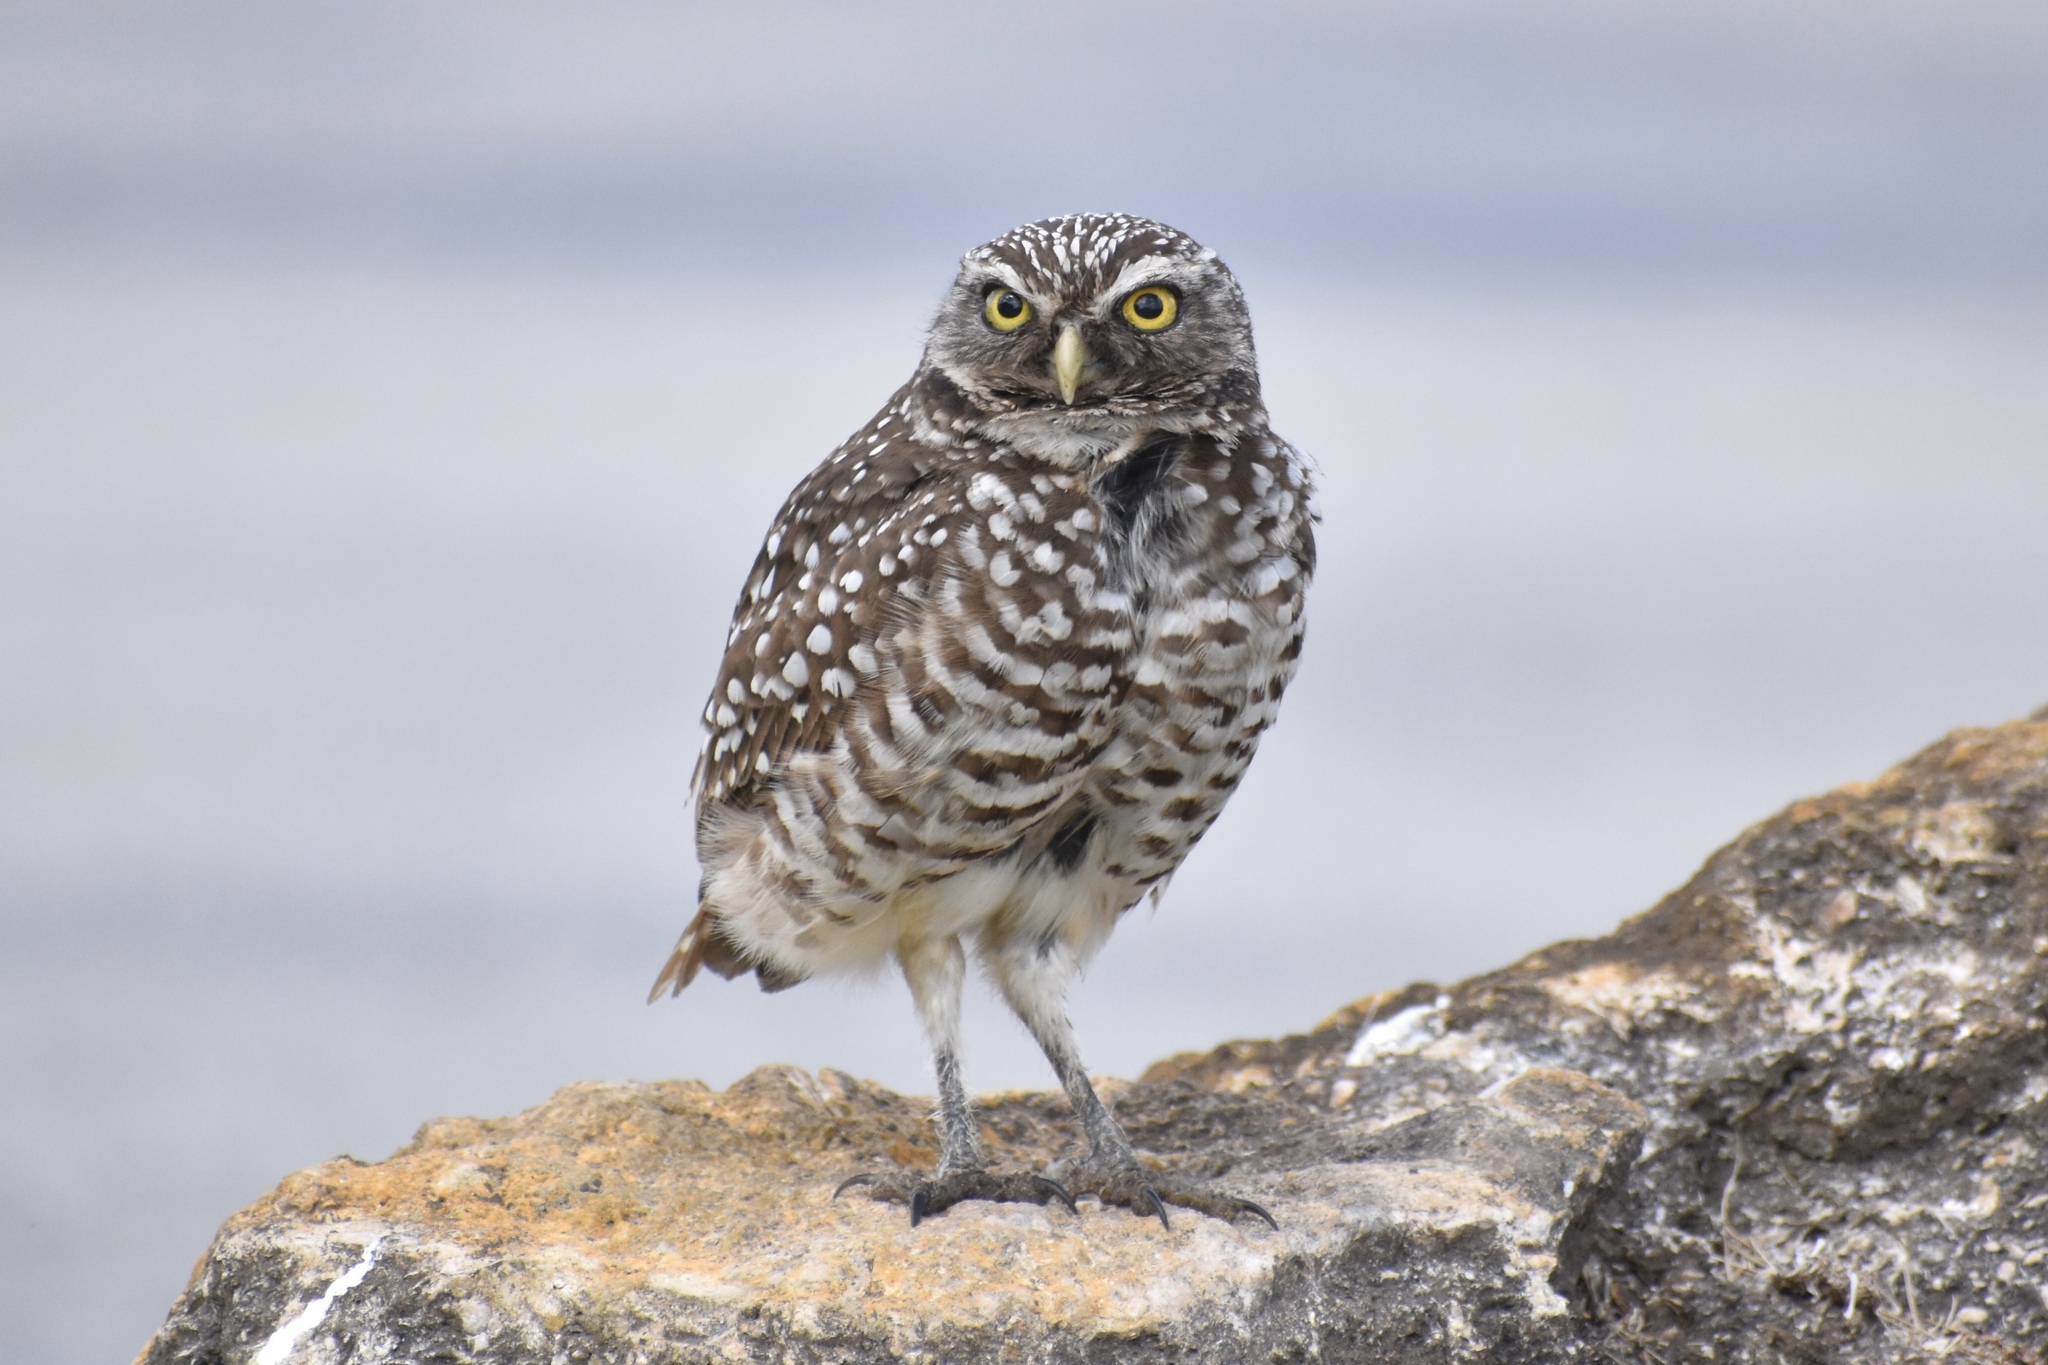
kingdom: Animalia
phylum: Chordata
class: Aves
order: Strigiformes
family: Strigidae
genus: Athene
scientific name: Athene cunicularia
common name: Burrowing owl
